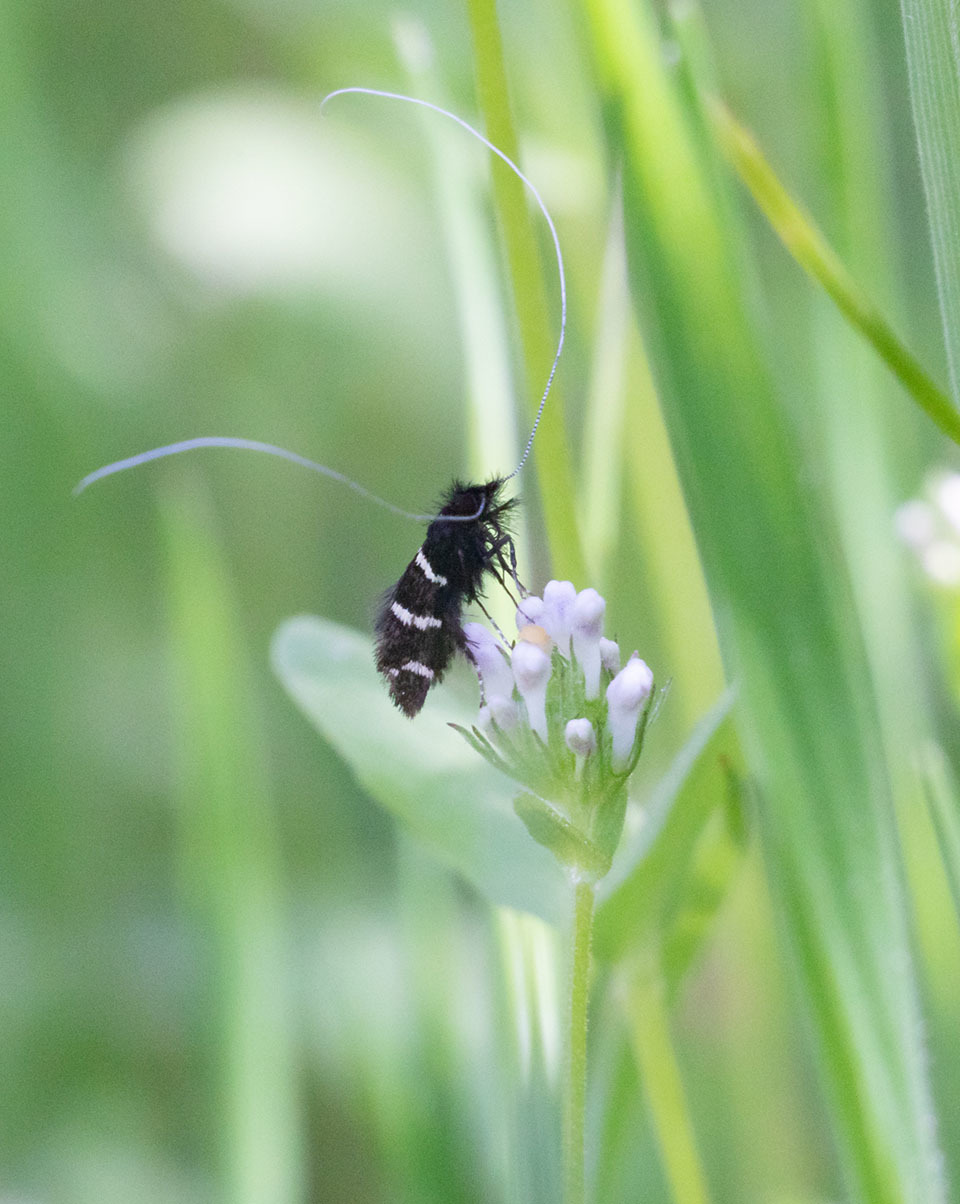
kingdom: Animalia
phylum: Arthropoda
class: Insecta
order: Lepidoptera
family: Adelidae
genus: Adela
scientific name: Adela trigrapha
